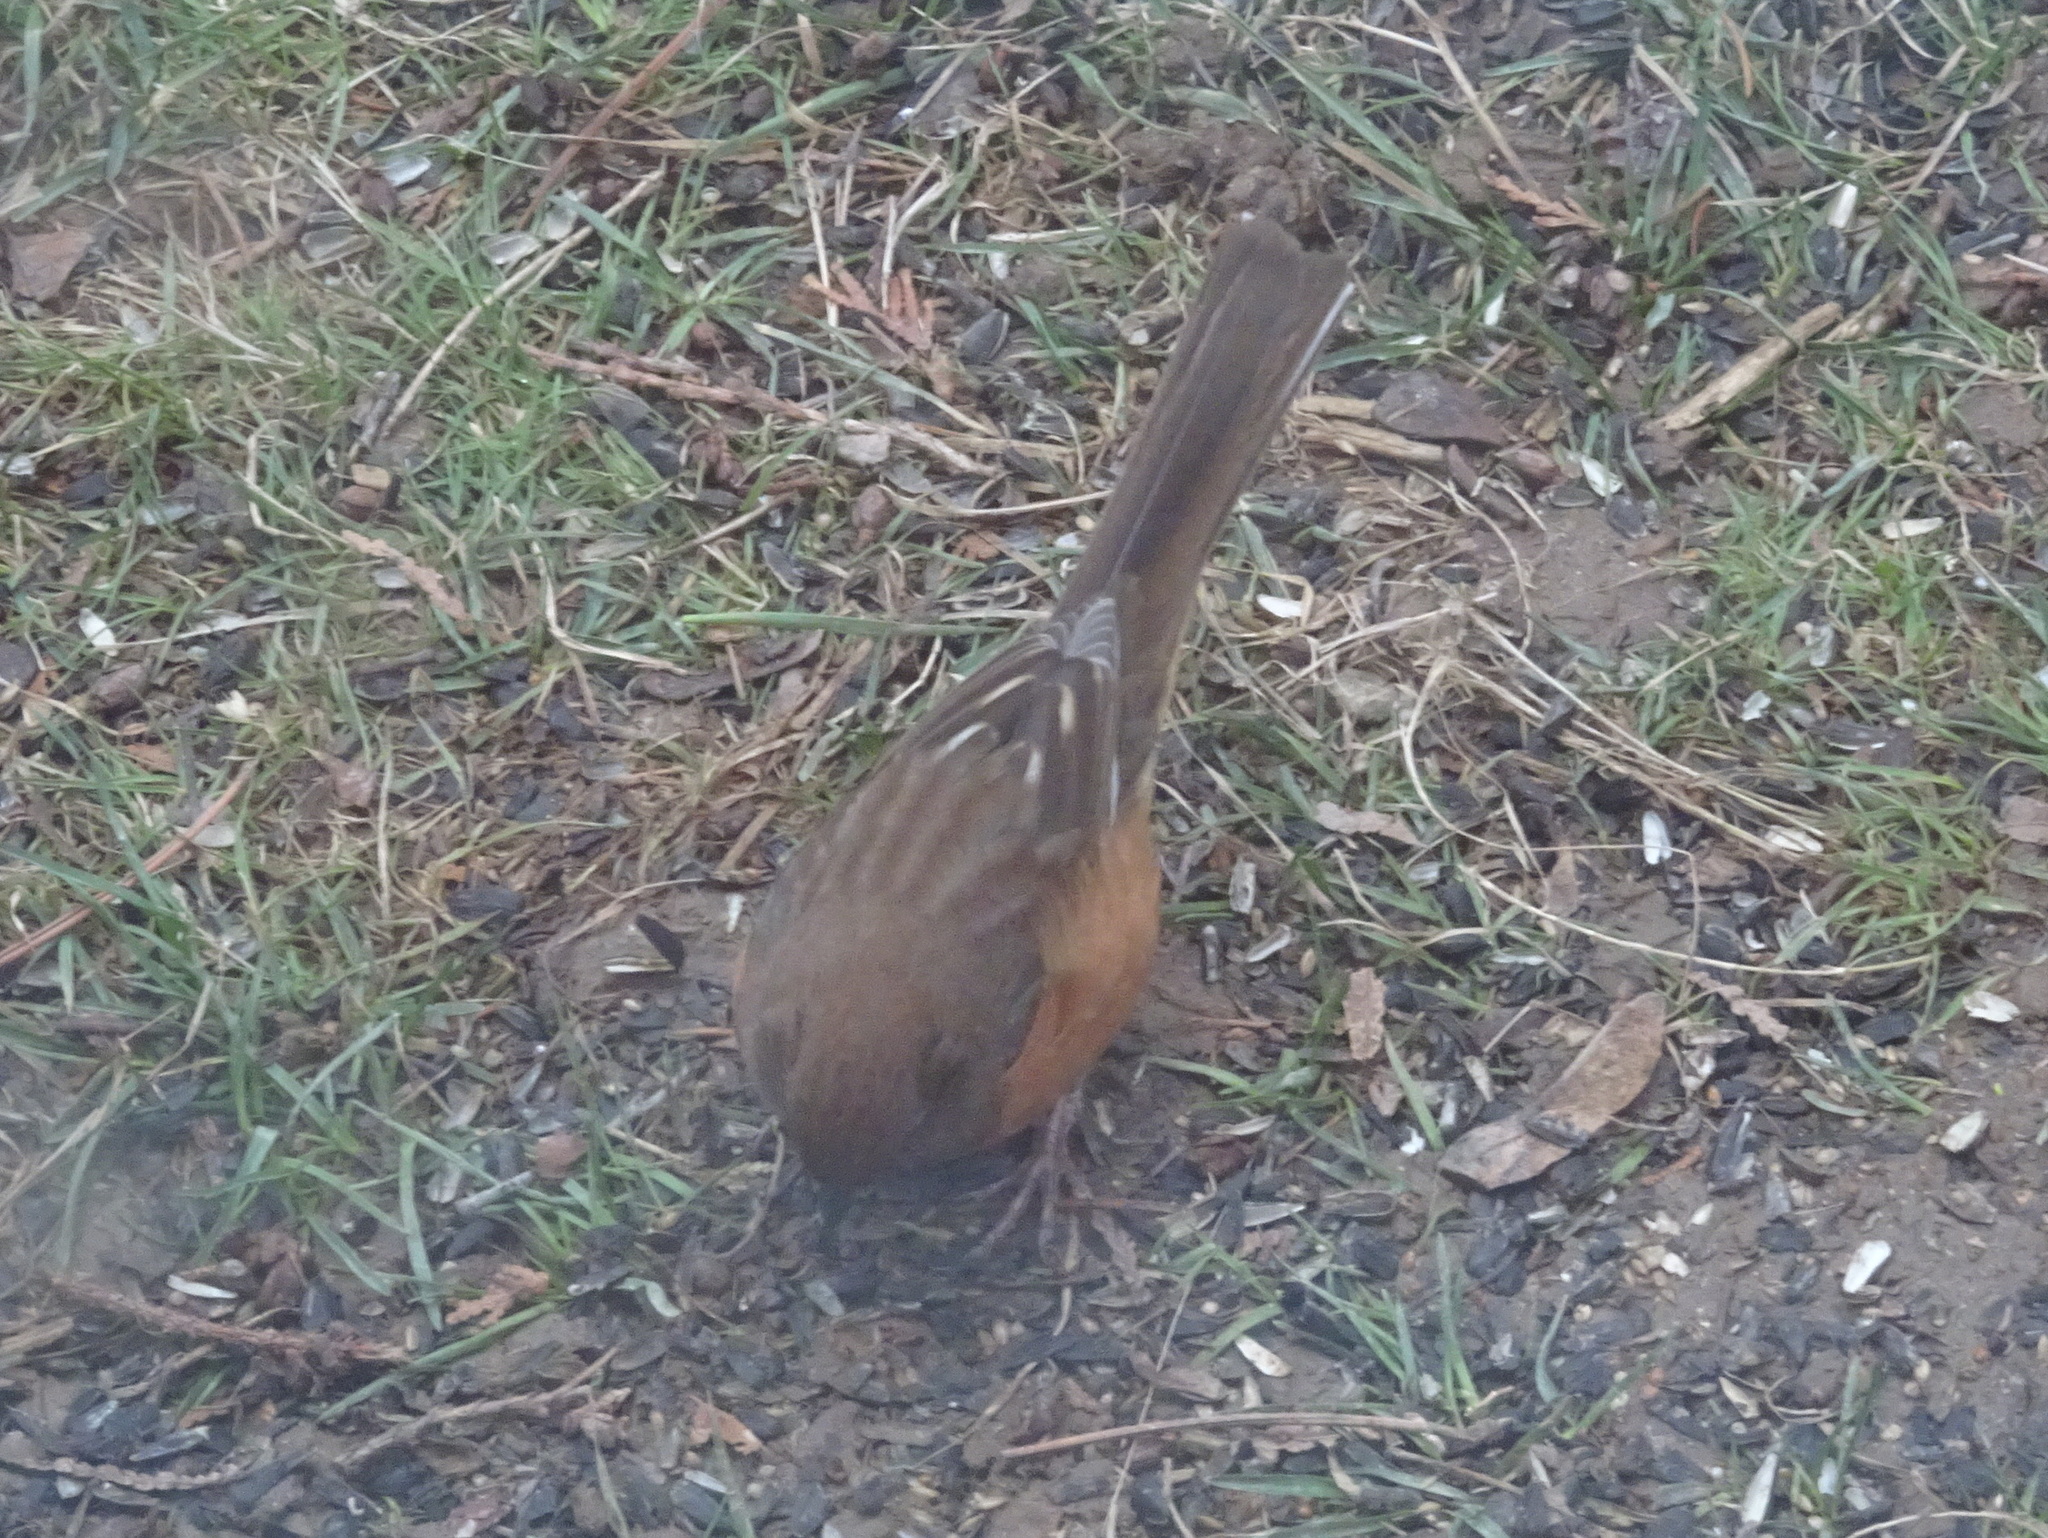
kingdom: Animalia
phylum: Chordata
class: Aves
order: Passeriformes
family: Passerellidae
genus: Pipilo
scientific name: Pipilo erythrophthalmus
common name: Eastern towhee
